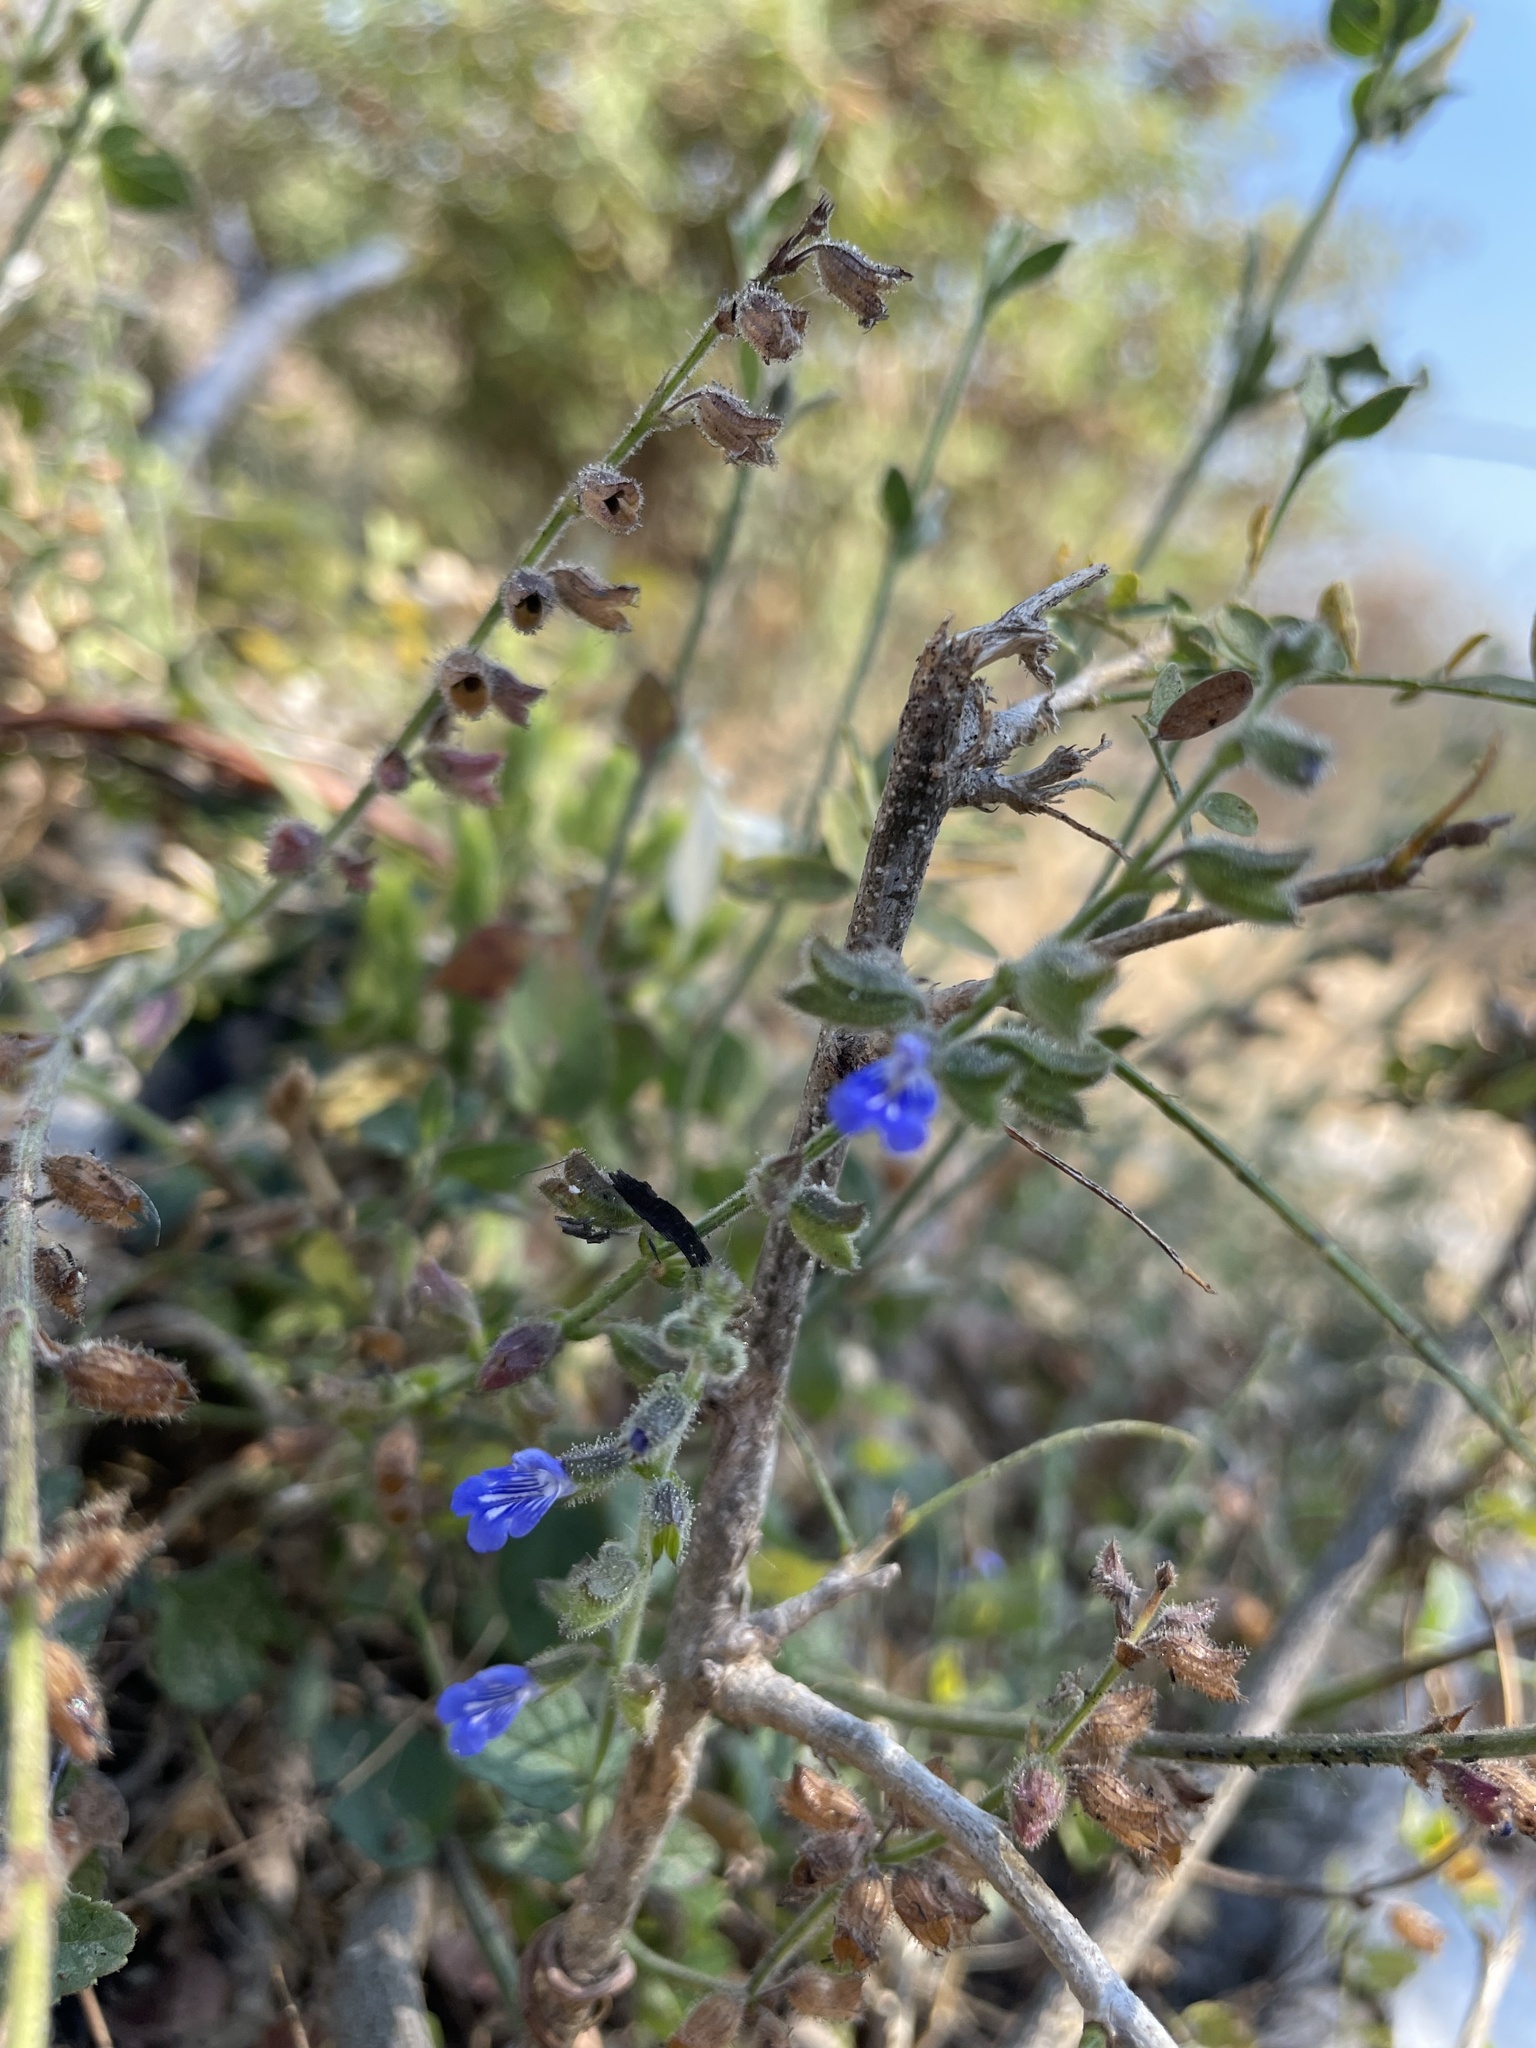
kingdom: Plantae
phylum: Tracheophyta
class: Magnoliopsida
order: Lamiales
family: Lamiaceae
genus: Salvia
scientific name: Salvia misella
